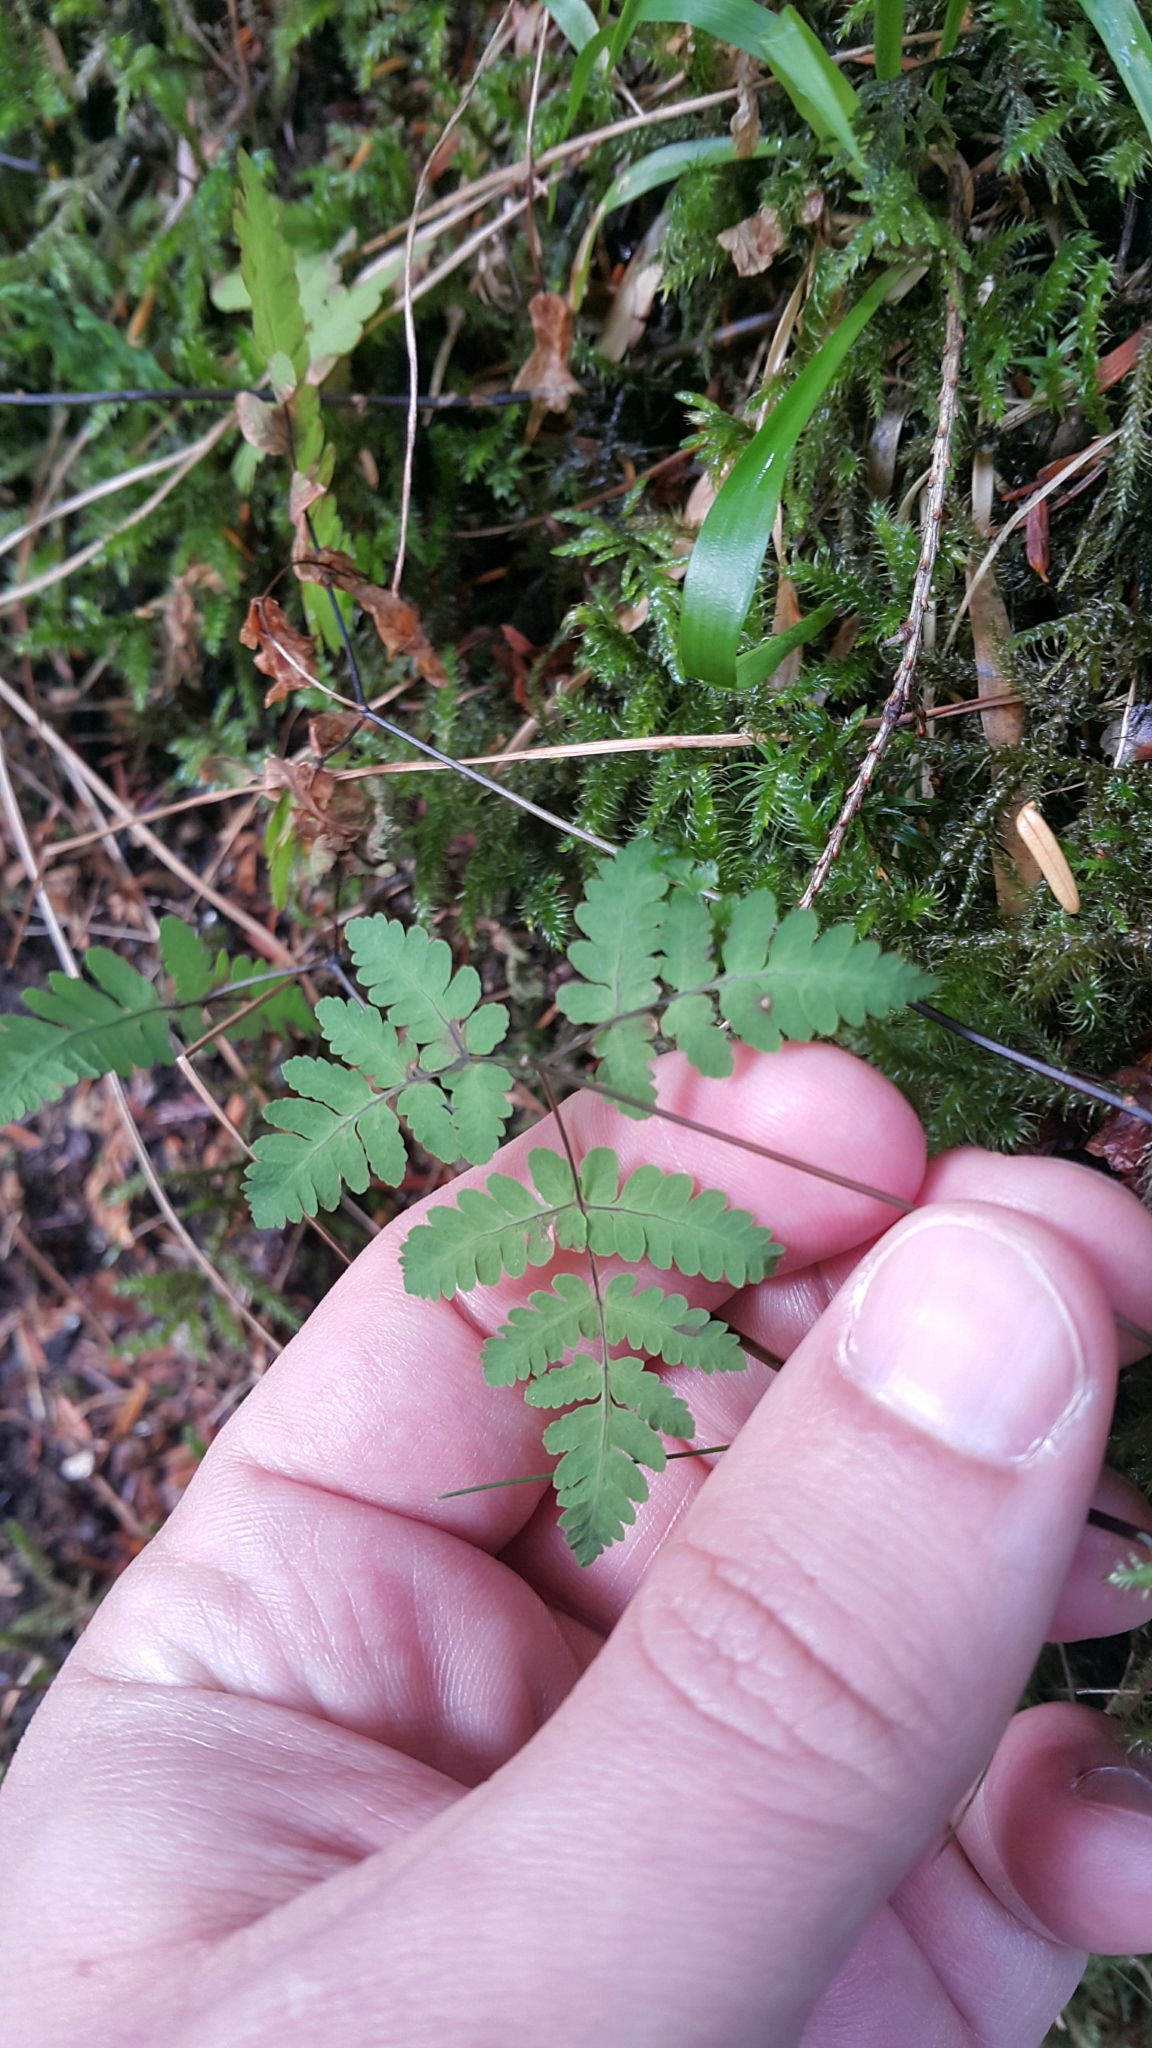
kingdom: Plantae
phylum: Tracheophyta
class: Polypodiopsida
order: Polypodiales
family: Cystopteridaceae
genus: Gymnocarpium
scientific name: Gymnocarpium dryopteris
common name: Oak fern
